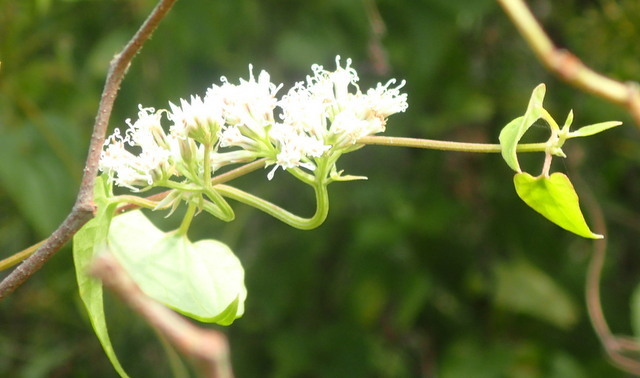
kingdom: Plantae
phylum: Tracheophyta
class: Magnoliopsida
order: Asterales
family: Asteraceae
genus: Mikania
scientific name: Mikania scandens
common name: Climbing hempvine
